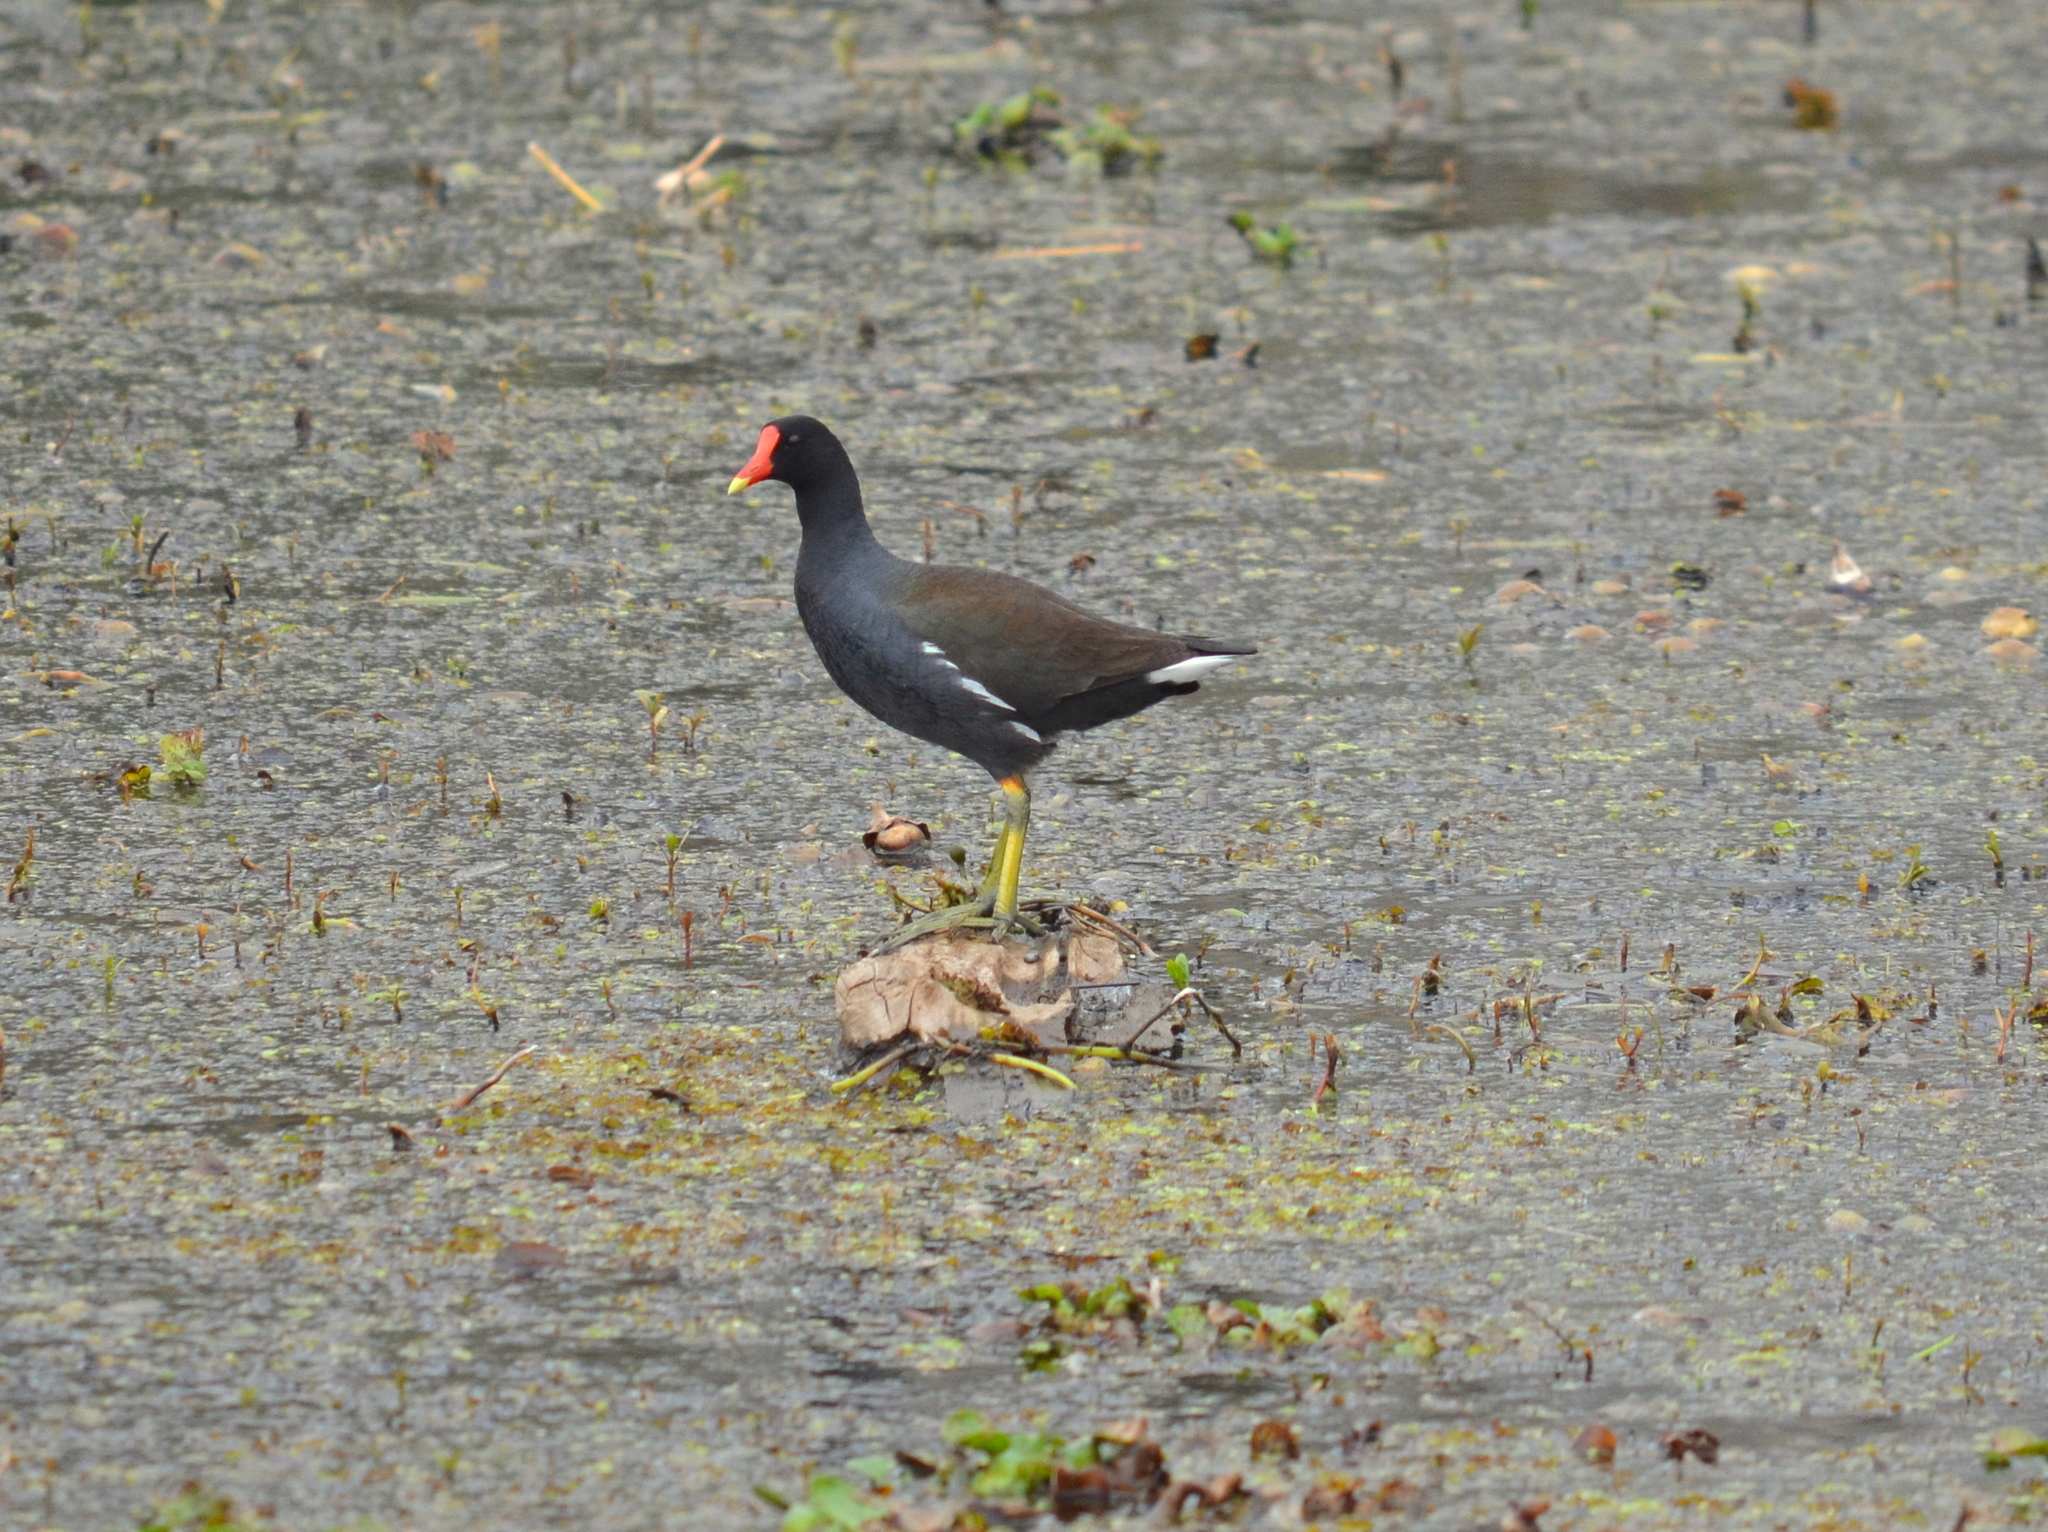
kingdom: Animalia
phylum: Chordata
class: Aves
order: Gruiformes
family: Rallidae
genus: Gallinula
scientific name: Gallinula chloropus
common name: Common moorhen
